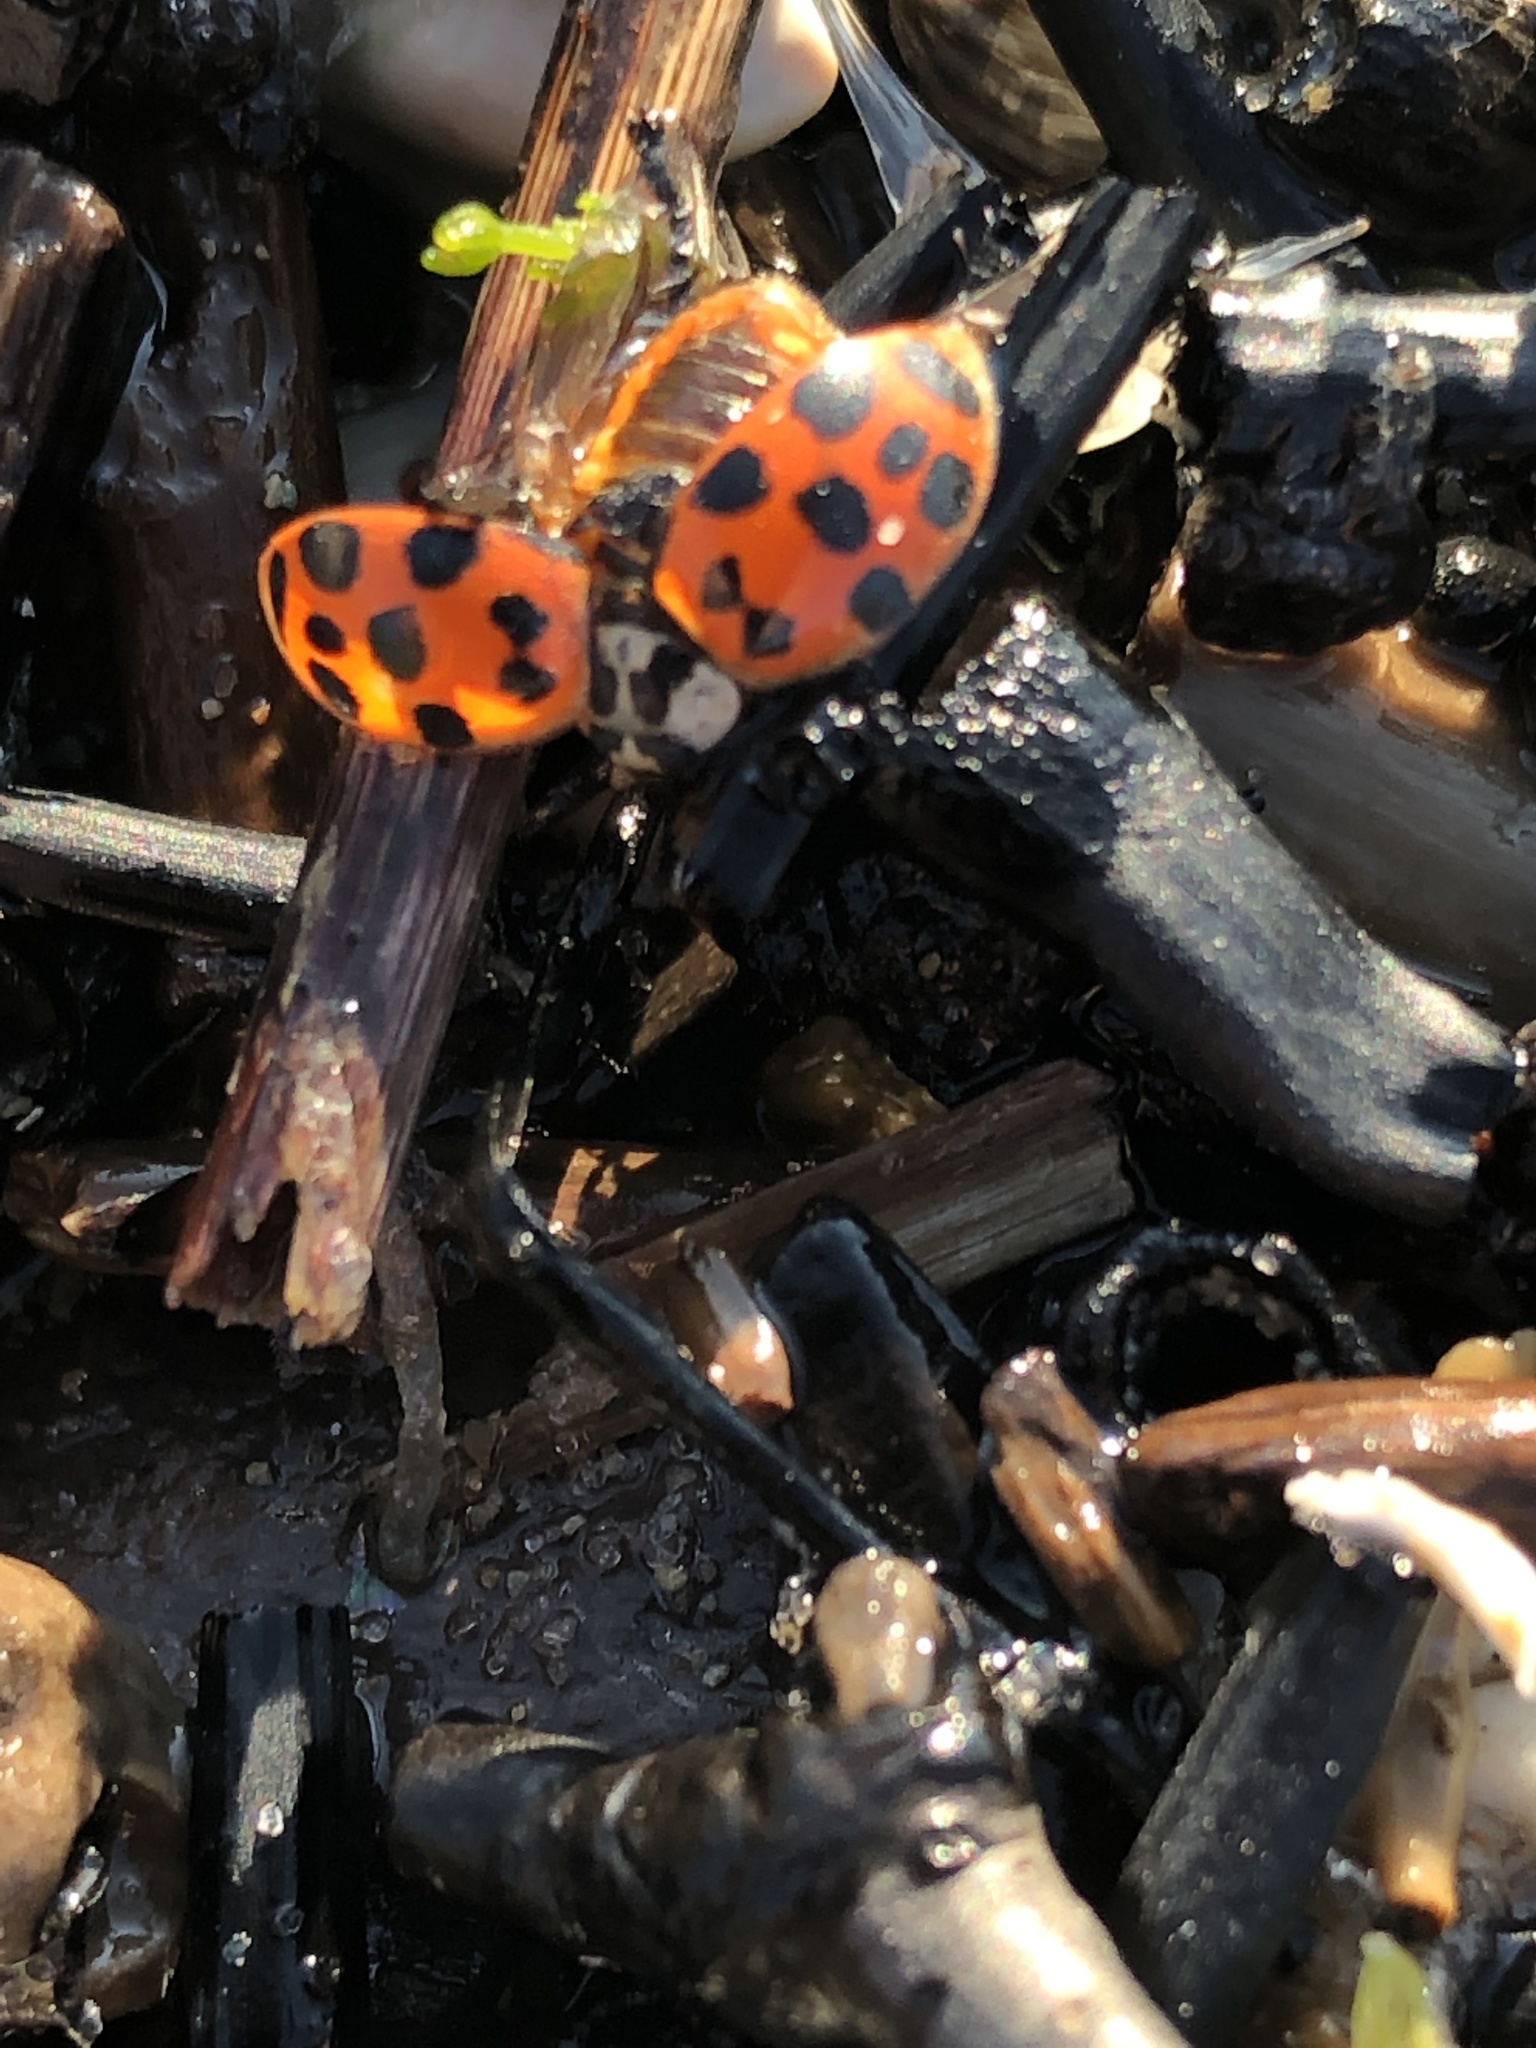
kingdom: Animalia
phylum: Arthropoda
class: Insecta
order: Coleoptera
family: Coccinellidae
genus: Harmonia
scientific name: Harmonia axyridis
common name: Harlequin ladybird
